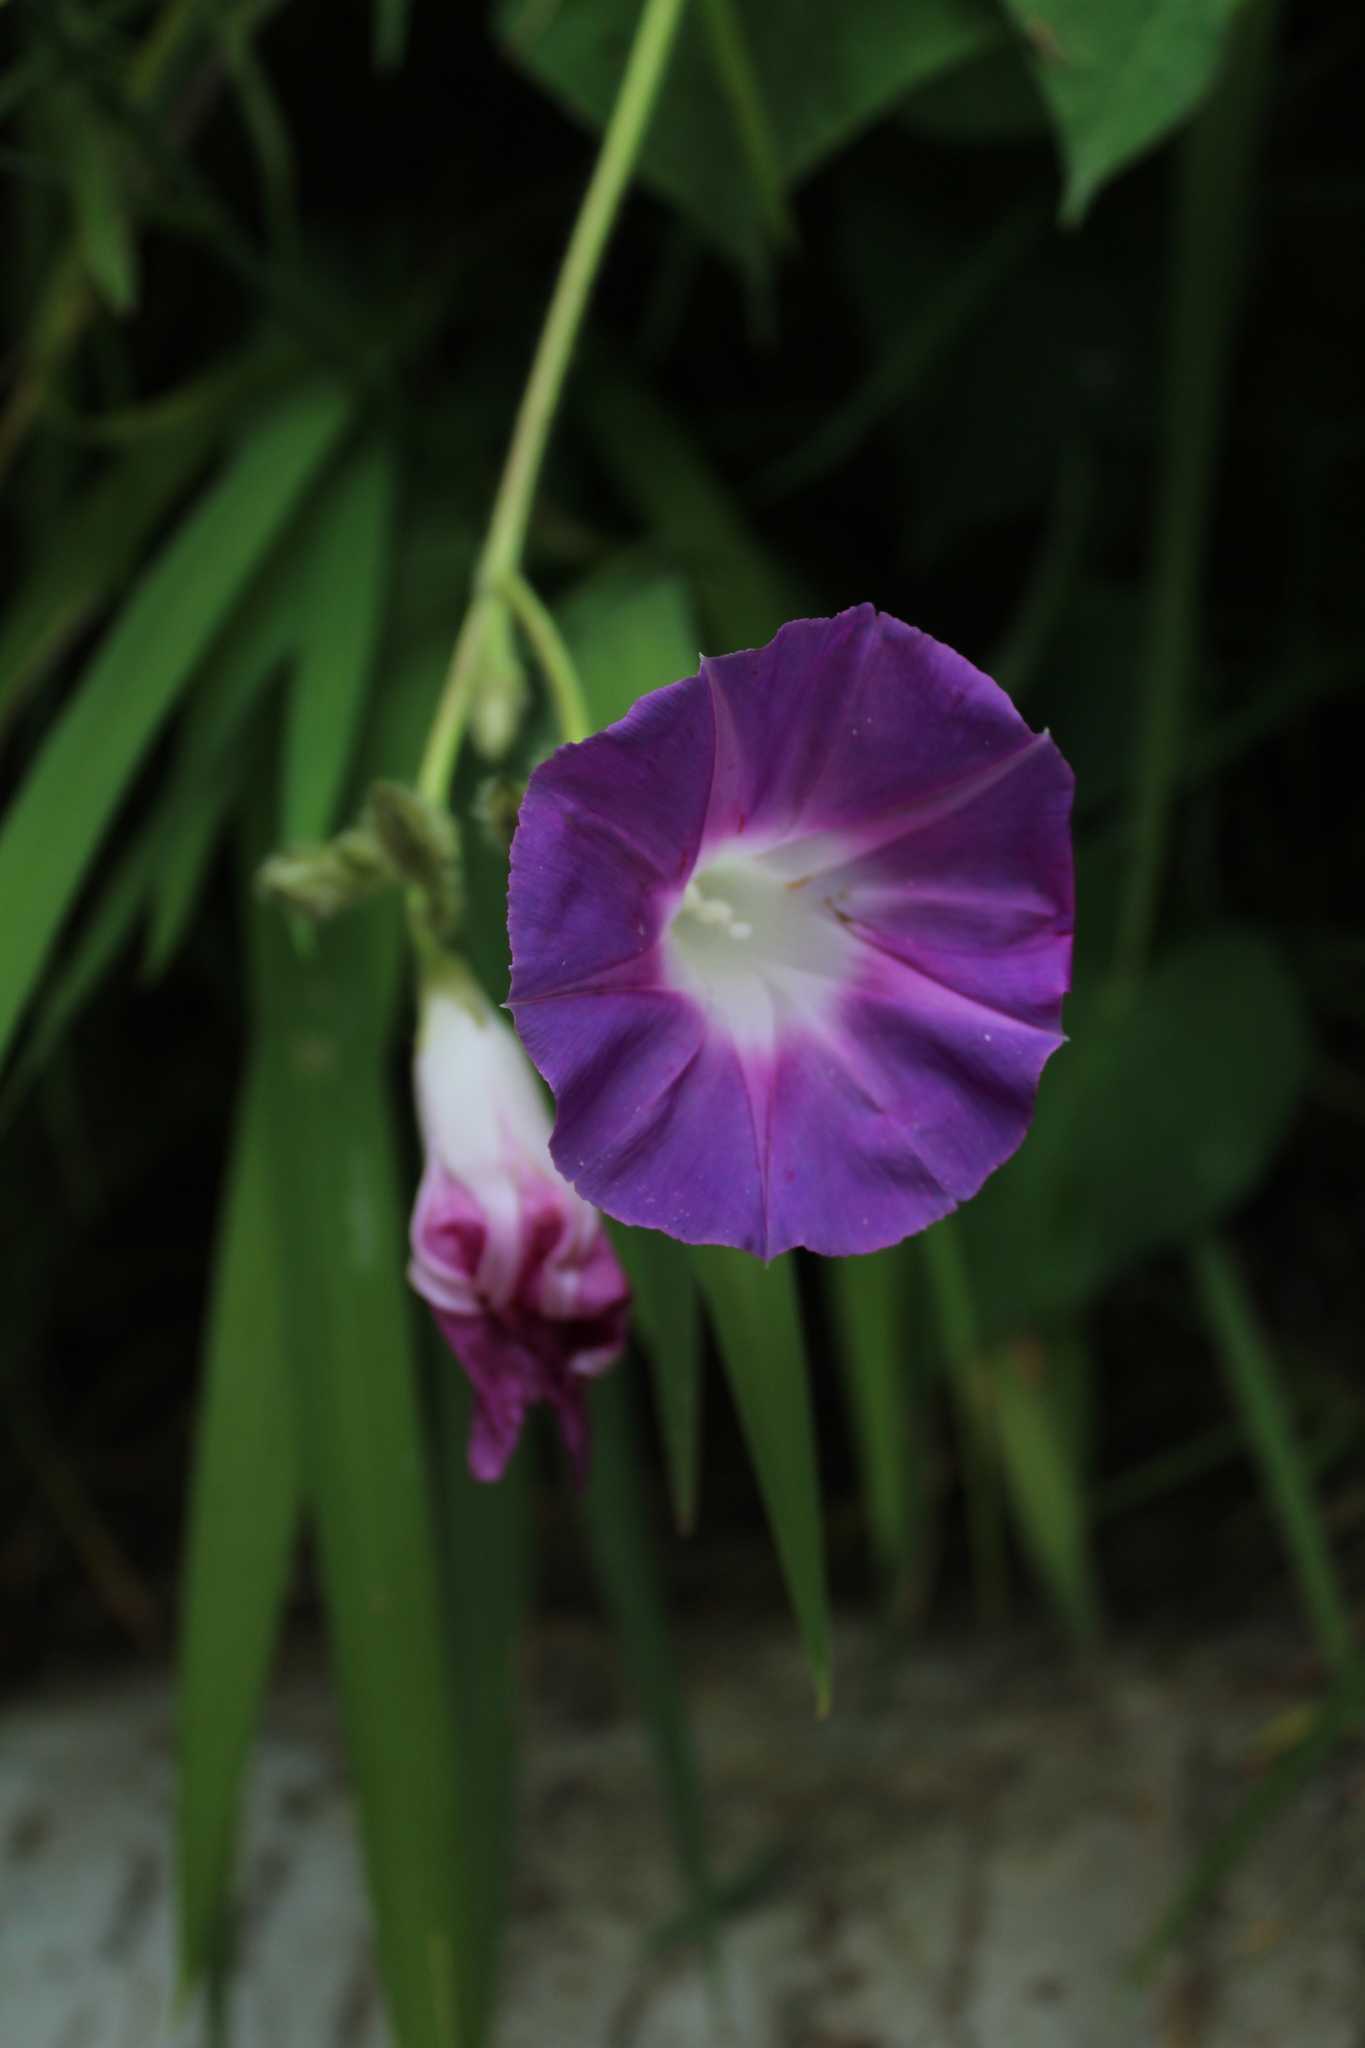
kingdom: Plantae
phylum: Tracheophyta
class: Magnoliopsida
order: Solanales
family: Convolvulaceae
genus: Ipomoea
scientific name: Ipomoea purpurea
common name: Common morning-glory
